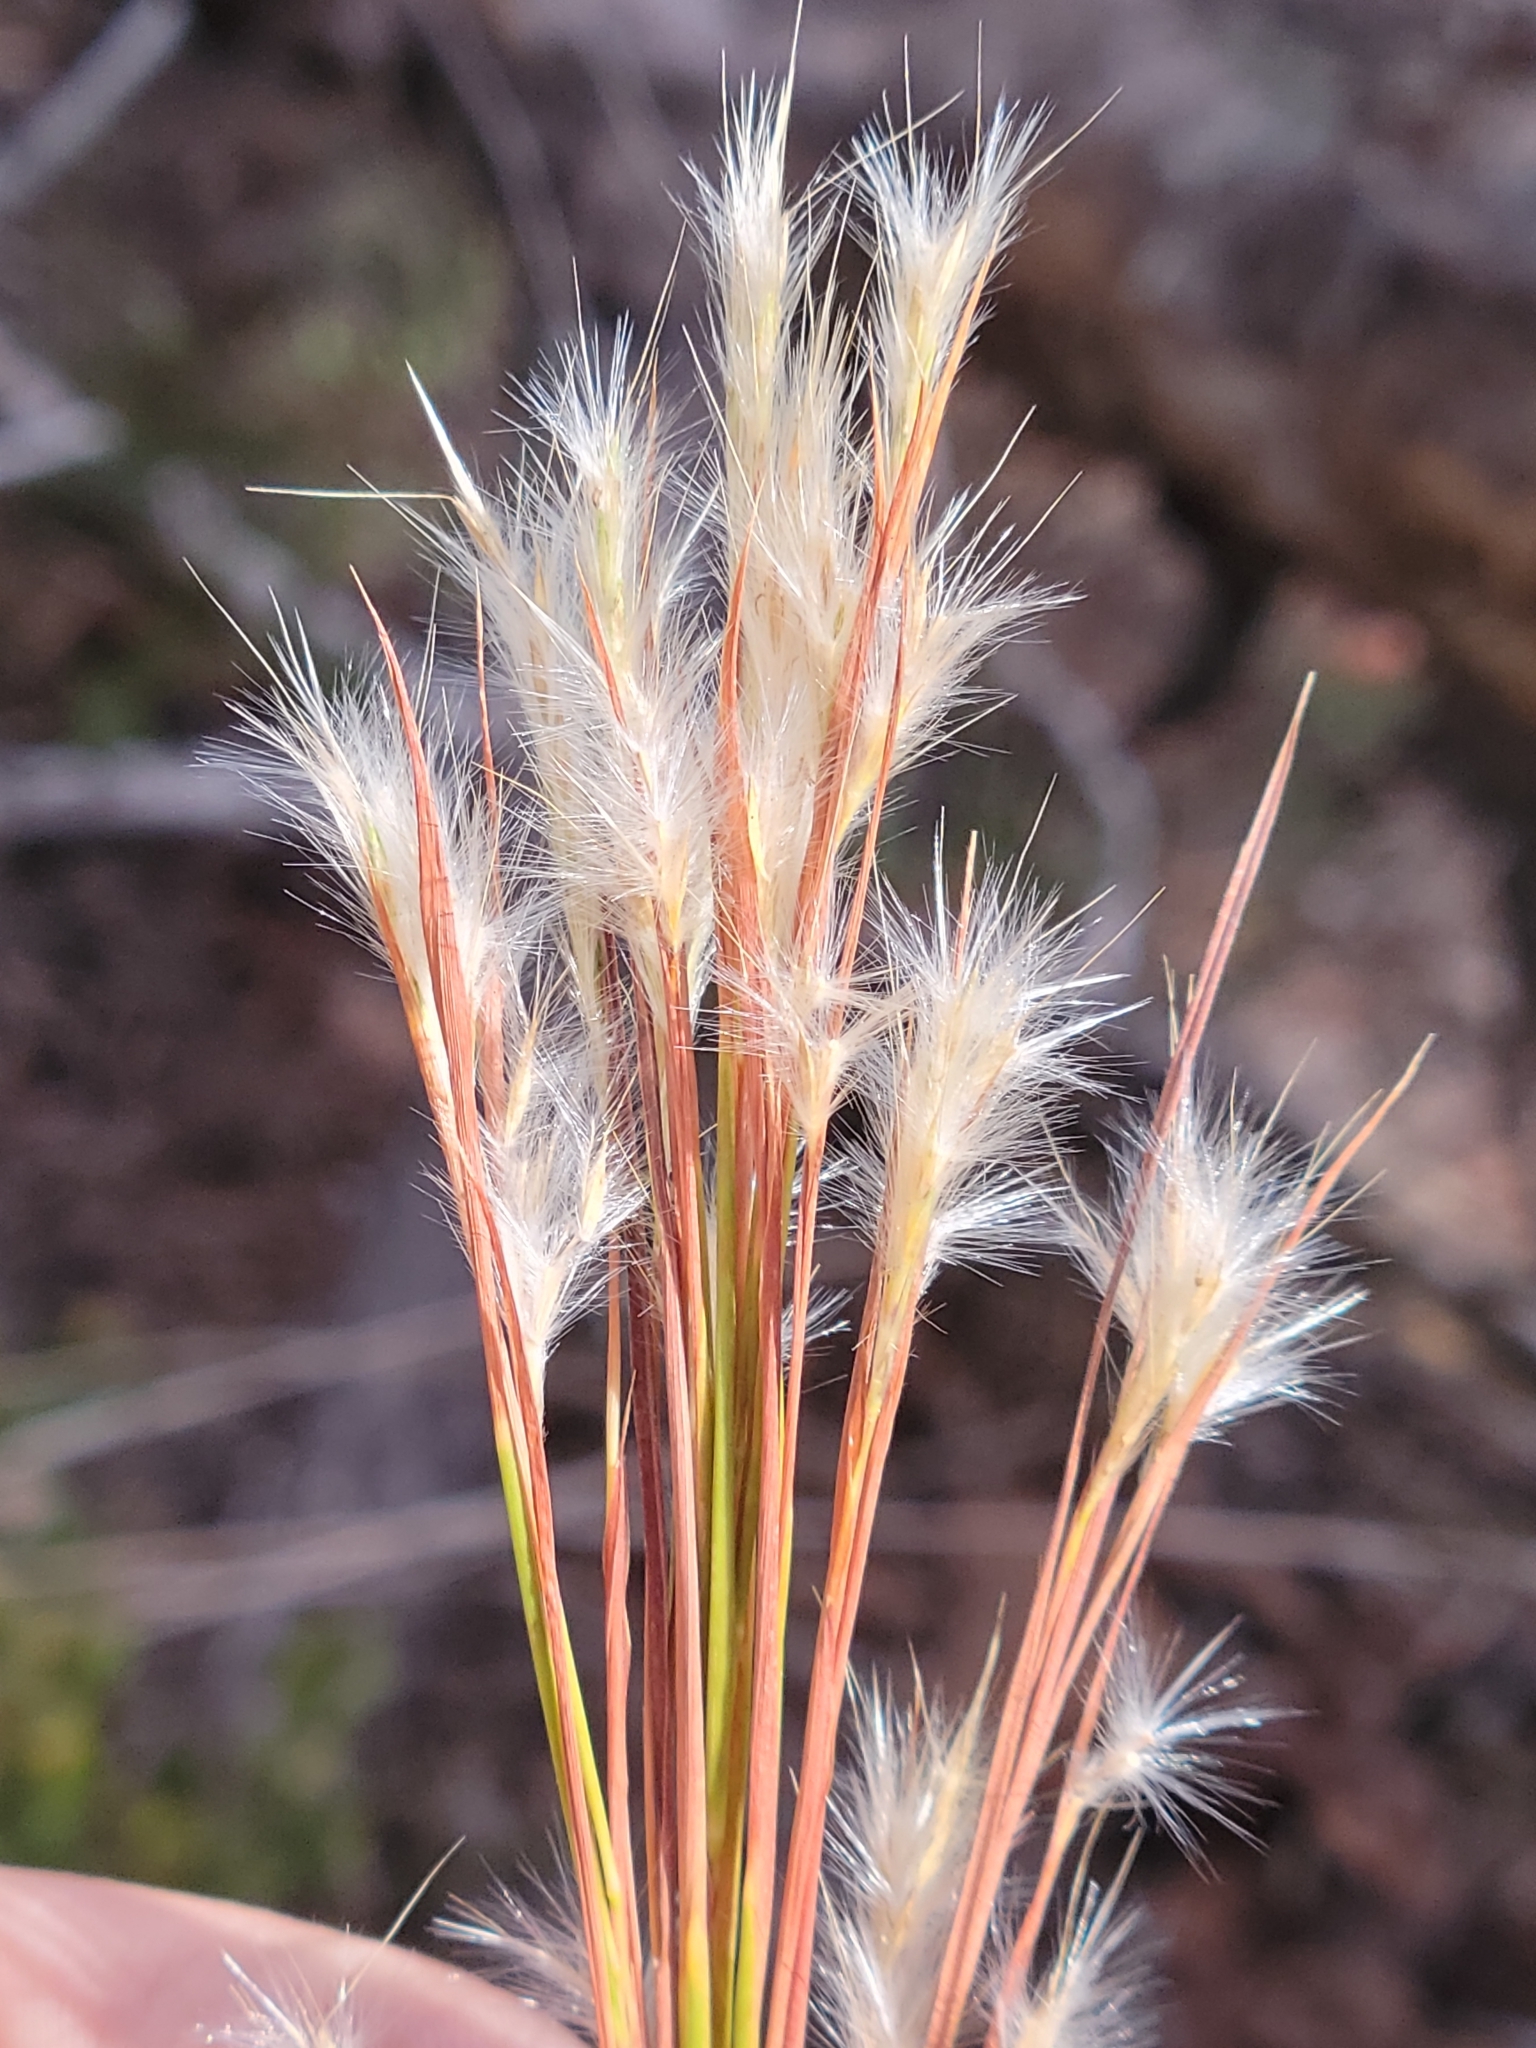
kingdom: Plantae
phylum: Tracheophyta
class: Liliopsida
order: Poales
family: Poaceae
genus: Andropogon
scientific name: Andropogon floridanus
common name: Florida bluestem
